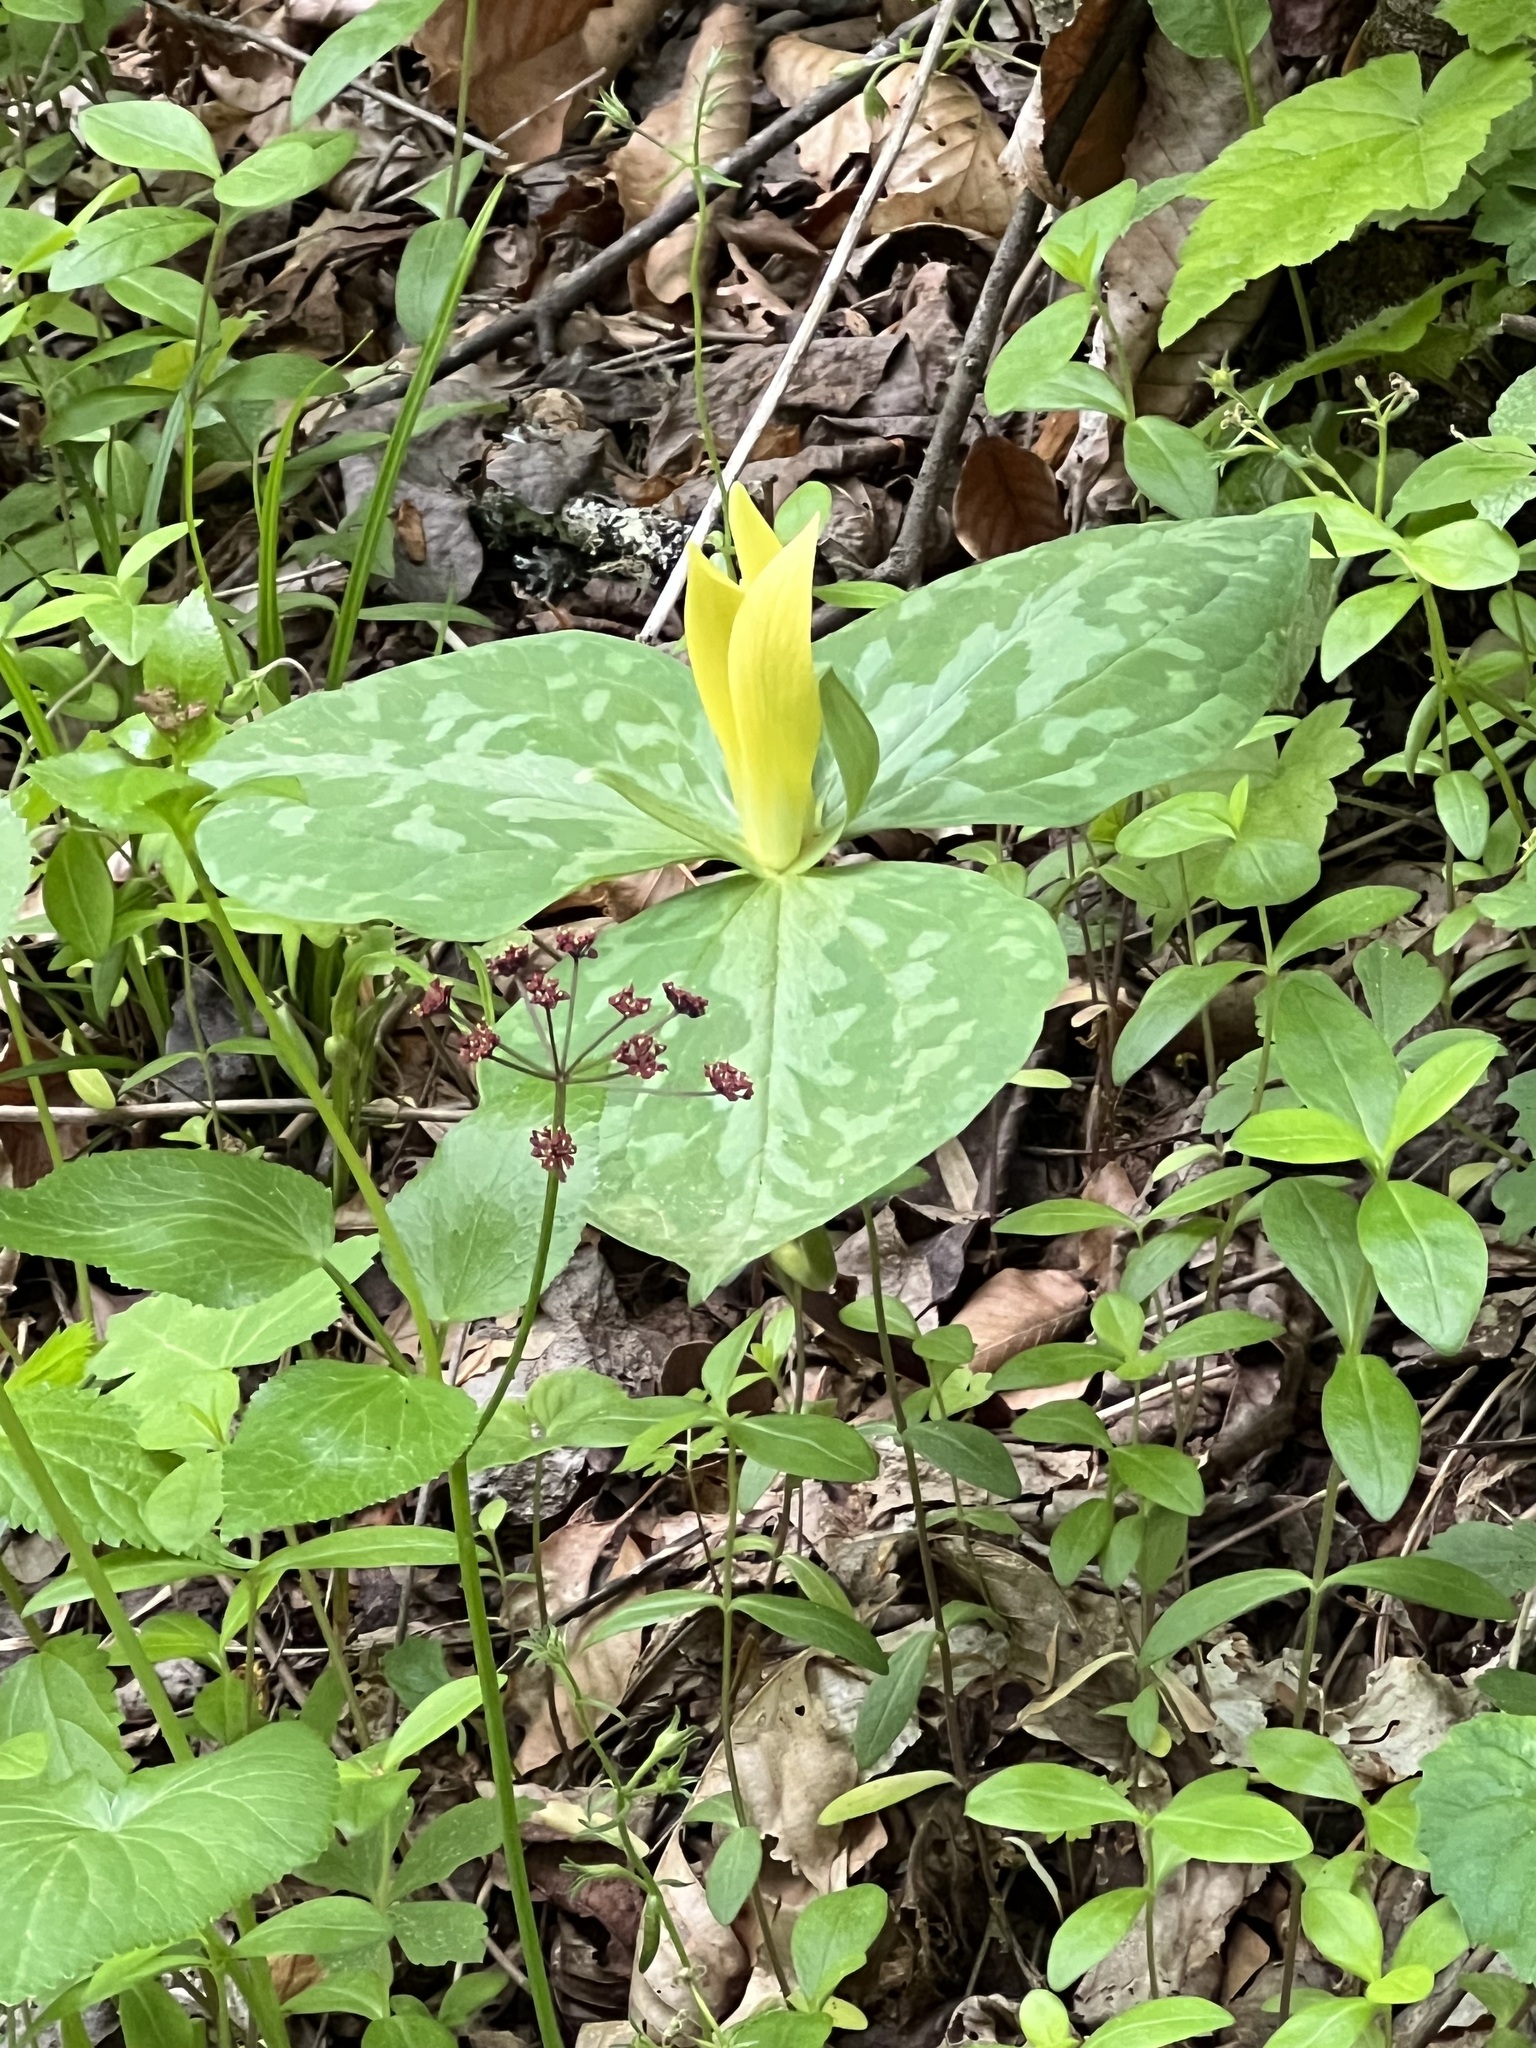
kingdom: Plantae
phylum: Tracheophyta
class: Liliopsida
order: Liliales
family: Melanthiaceae
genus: Trillium
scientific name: Trillium luteum
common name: Wax trillium
